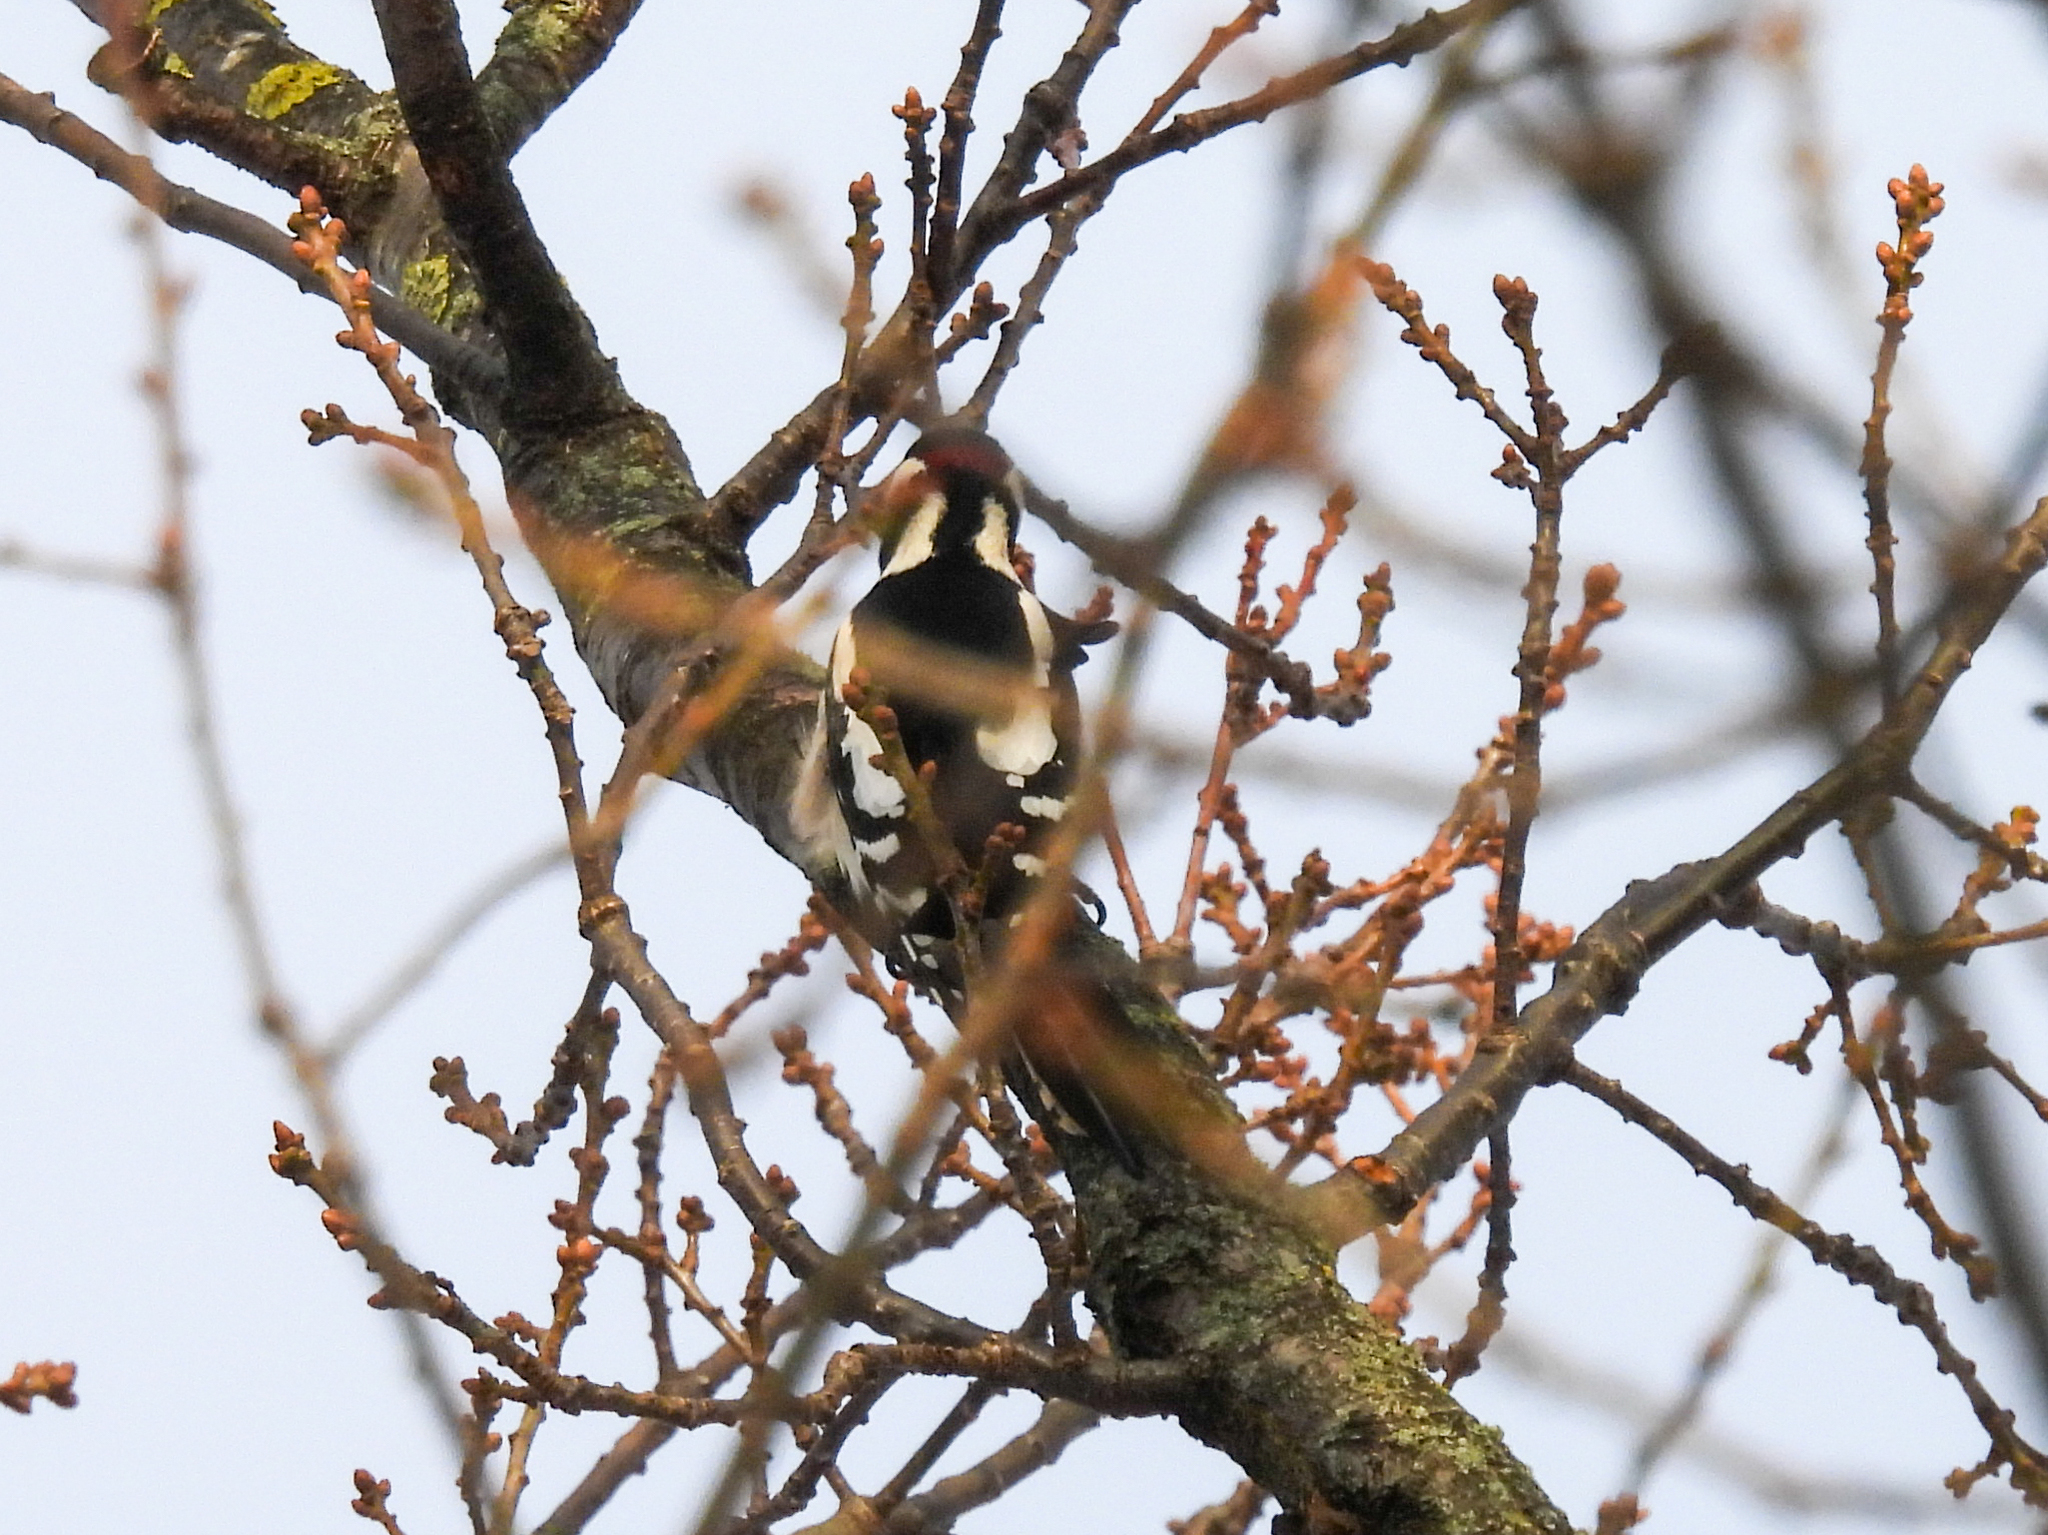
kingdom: Animalia
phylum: Chordata
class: Aves
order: Piciformes
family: Picidae
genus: Dendrocopos
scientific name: Dendrocopos major
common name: Great spotted woodpecker
